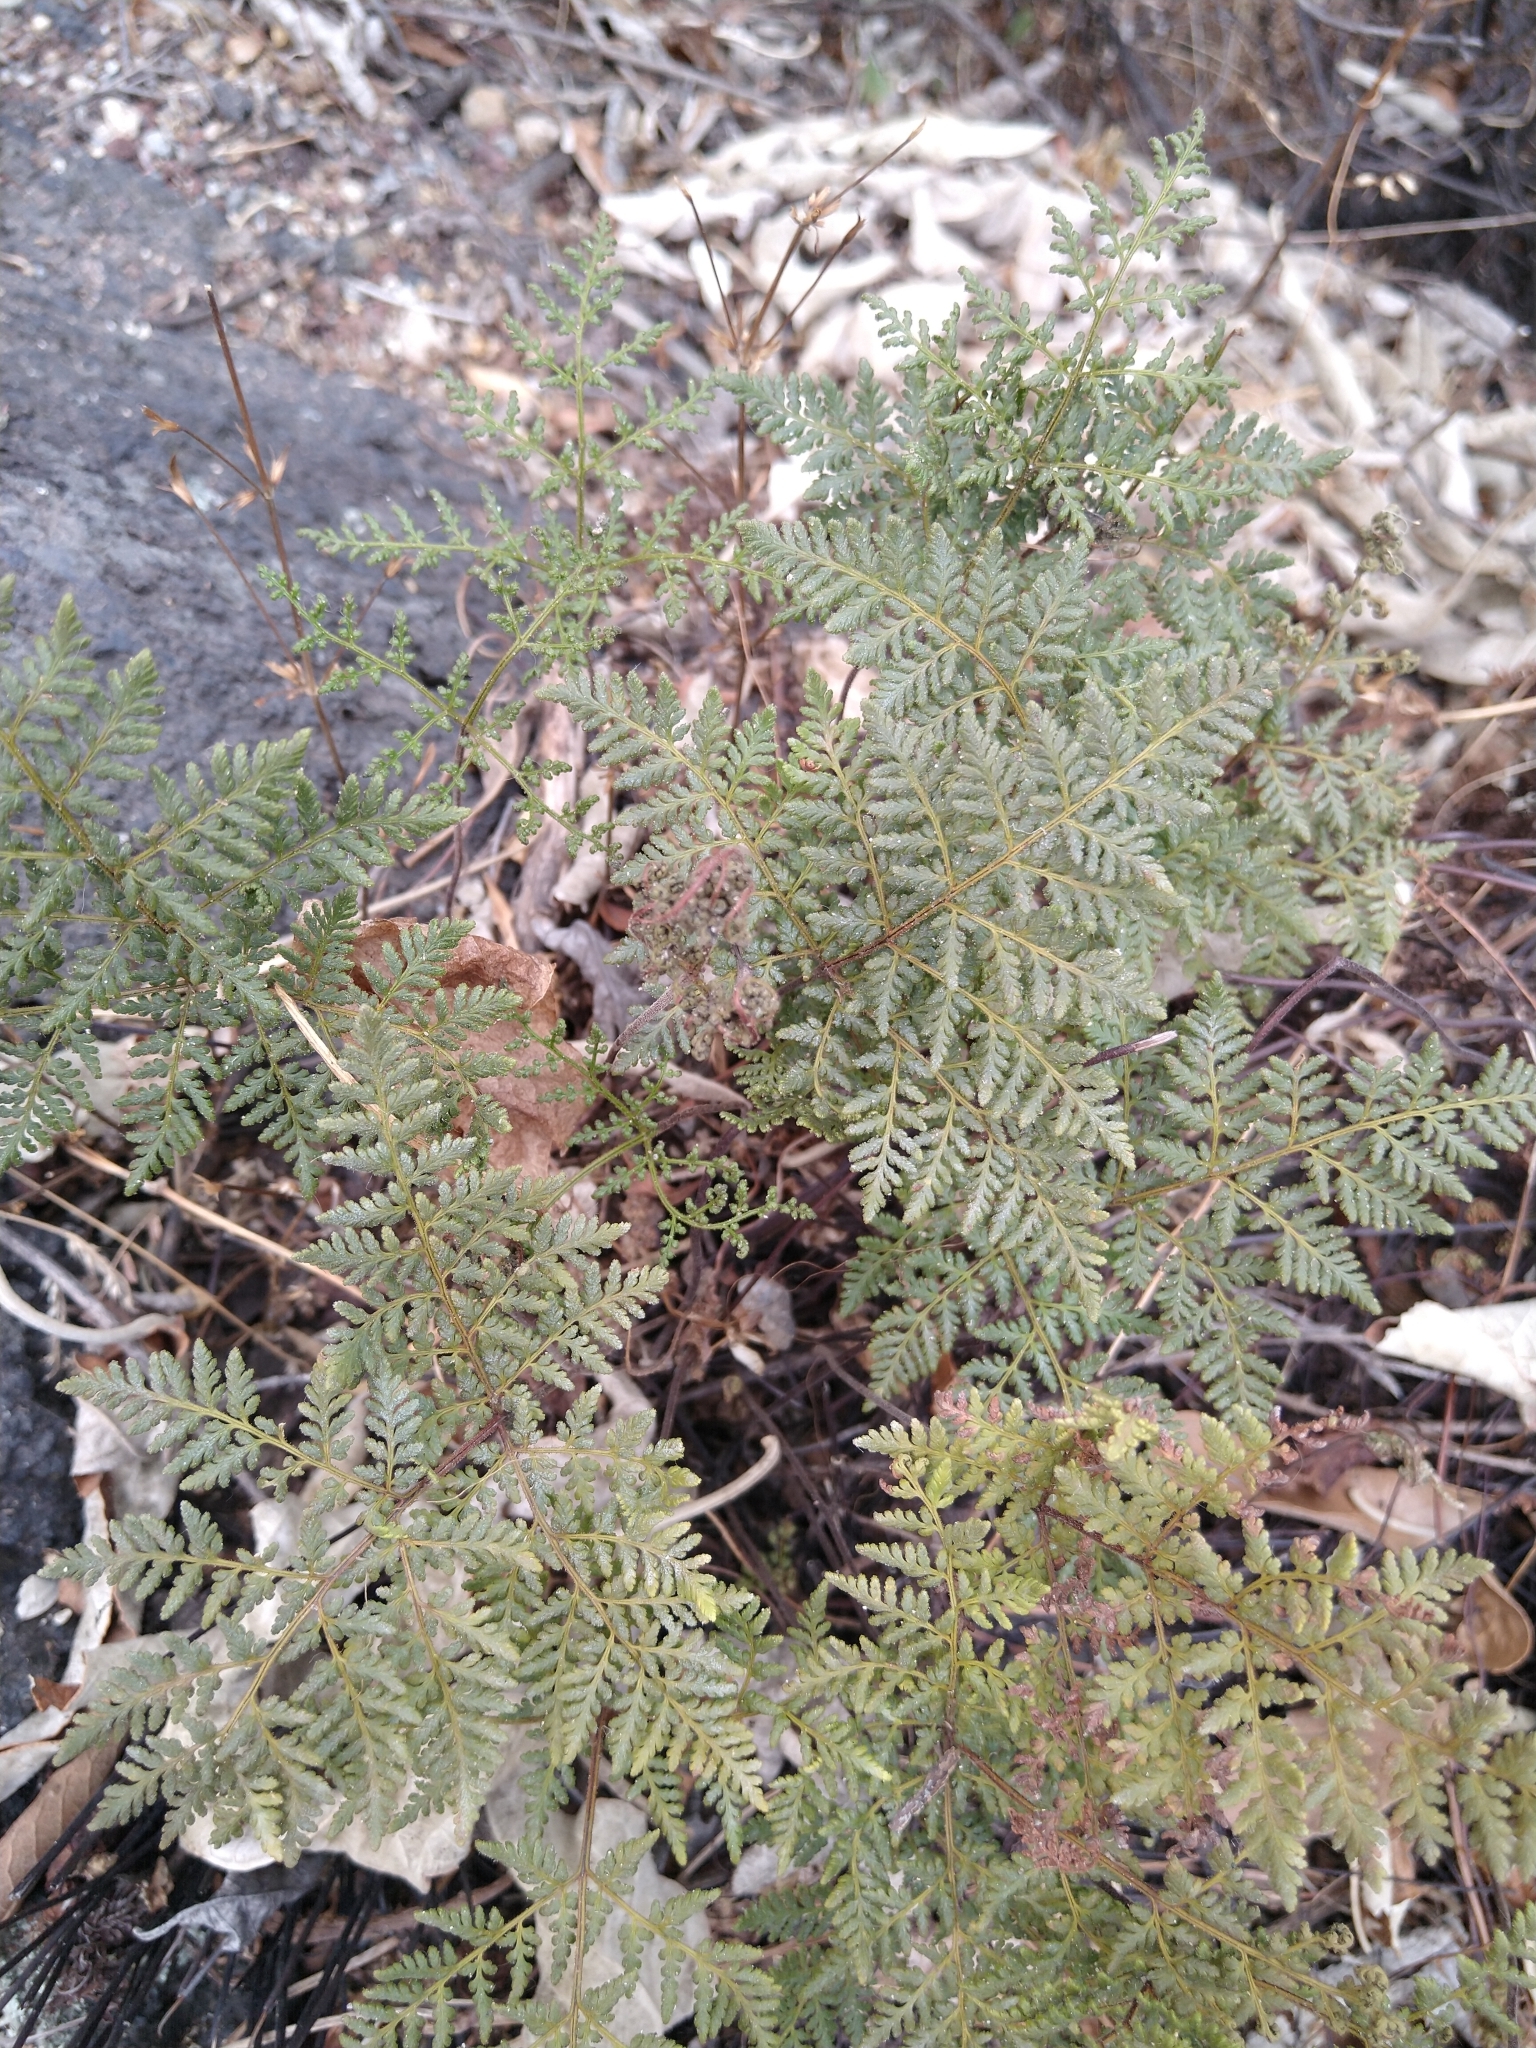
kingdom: Plantae
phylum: Tracheophyta
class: Polypodiopsida
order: Polypodiales
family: Pteridaceae
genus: Gaga
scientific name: Gaga kaulfussii
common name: Glandular lip fern
